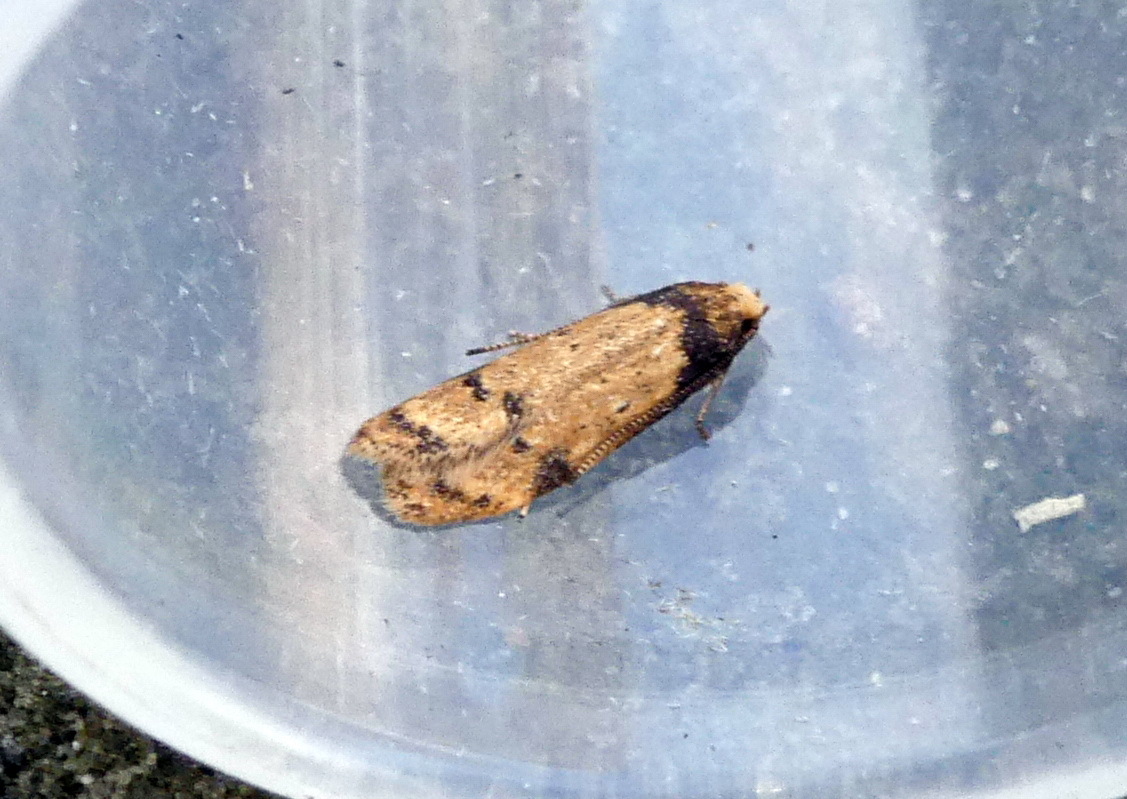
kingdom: Animalia
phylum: Arthropoda
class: Insecta
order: Lepidoptera
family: Autostichidae
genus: Gerdana
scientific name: Gerdana caritella
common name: Gerdana moth
